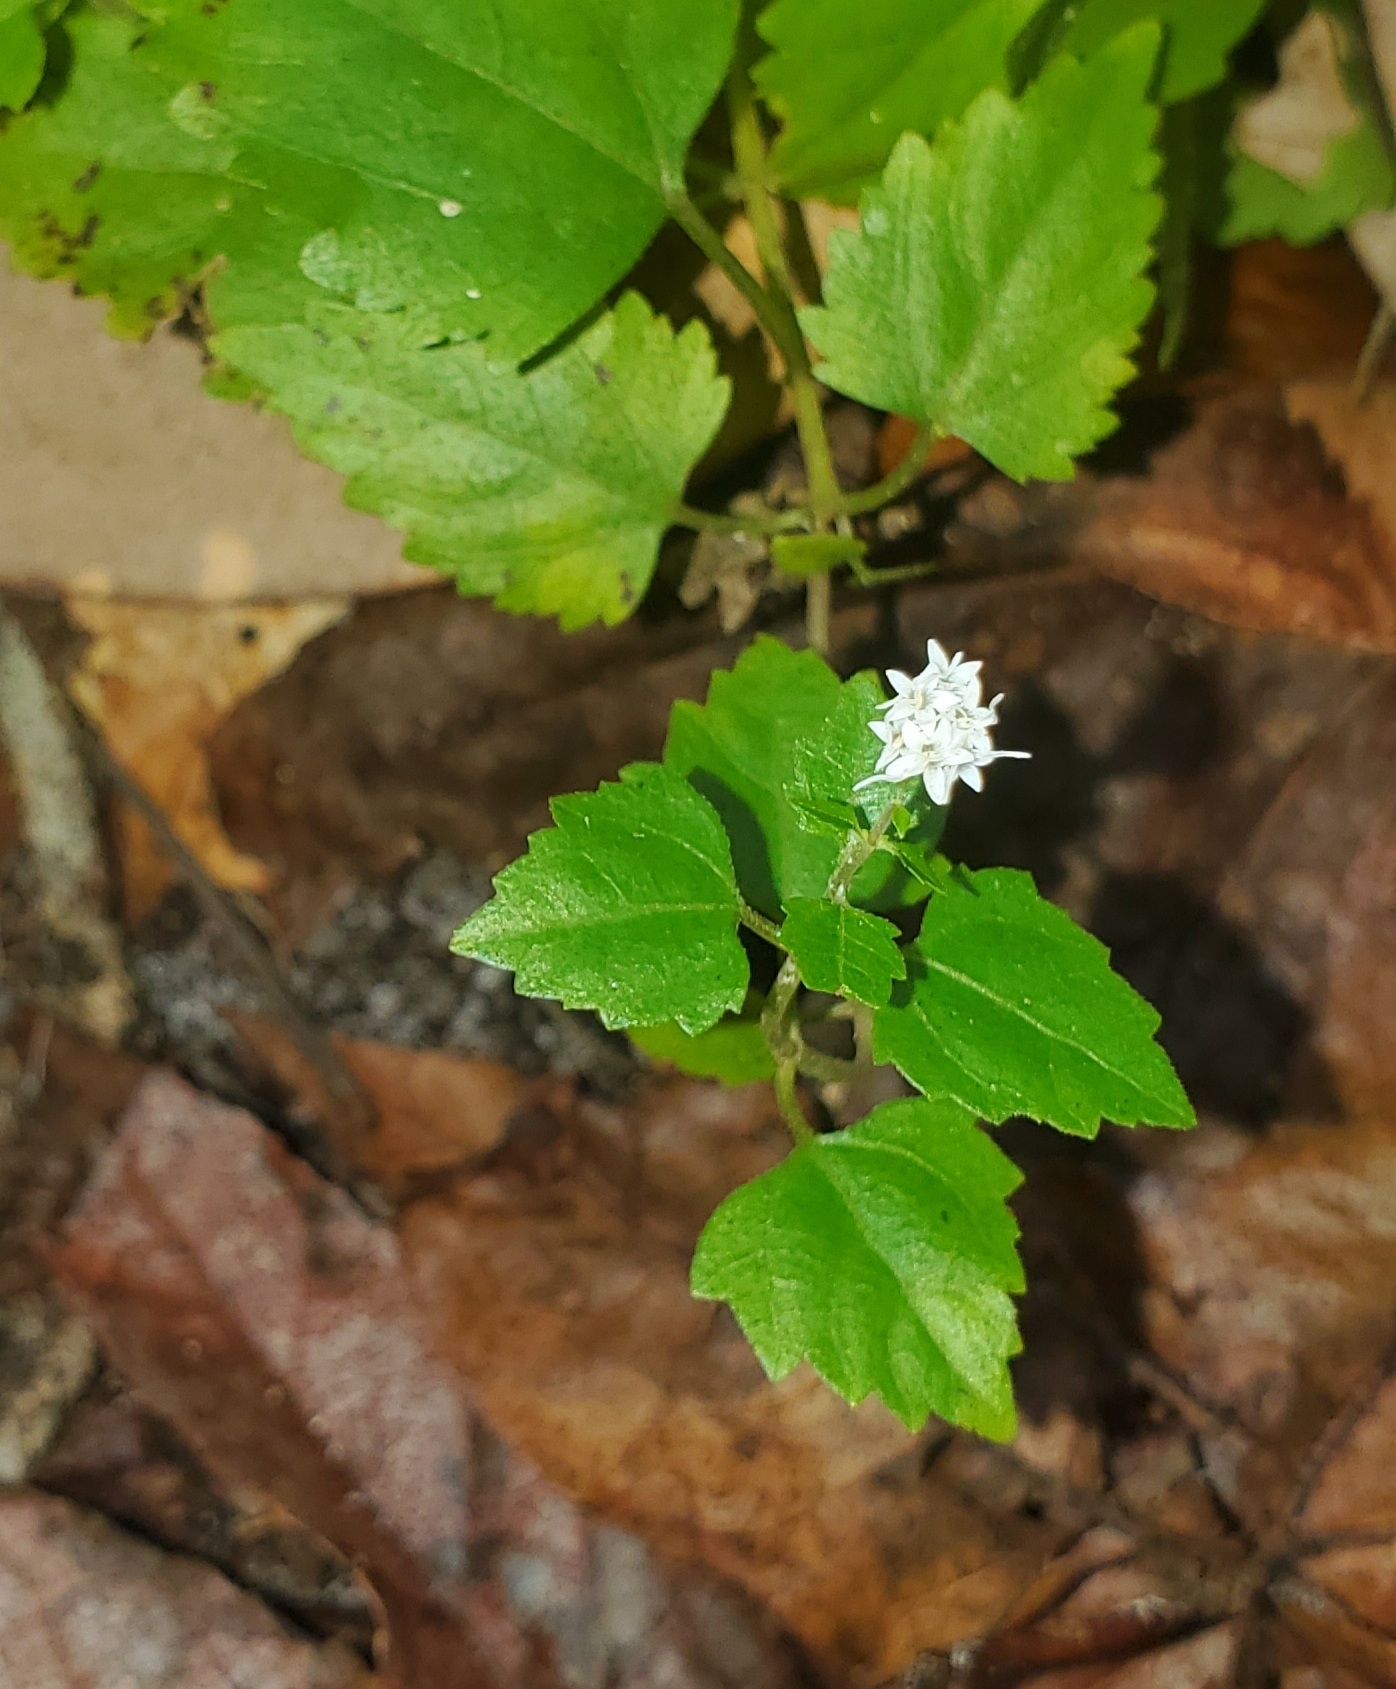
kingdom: Plantae
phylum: Tracheophyta
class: Magnoliopsida
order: Asterales
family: Asteraceae
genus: Ageratina
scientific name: Ageratina jucunda
